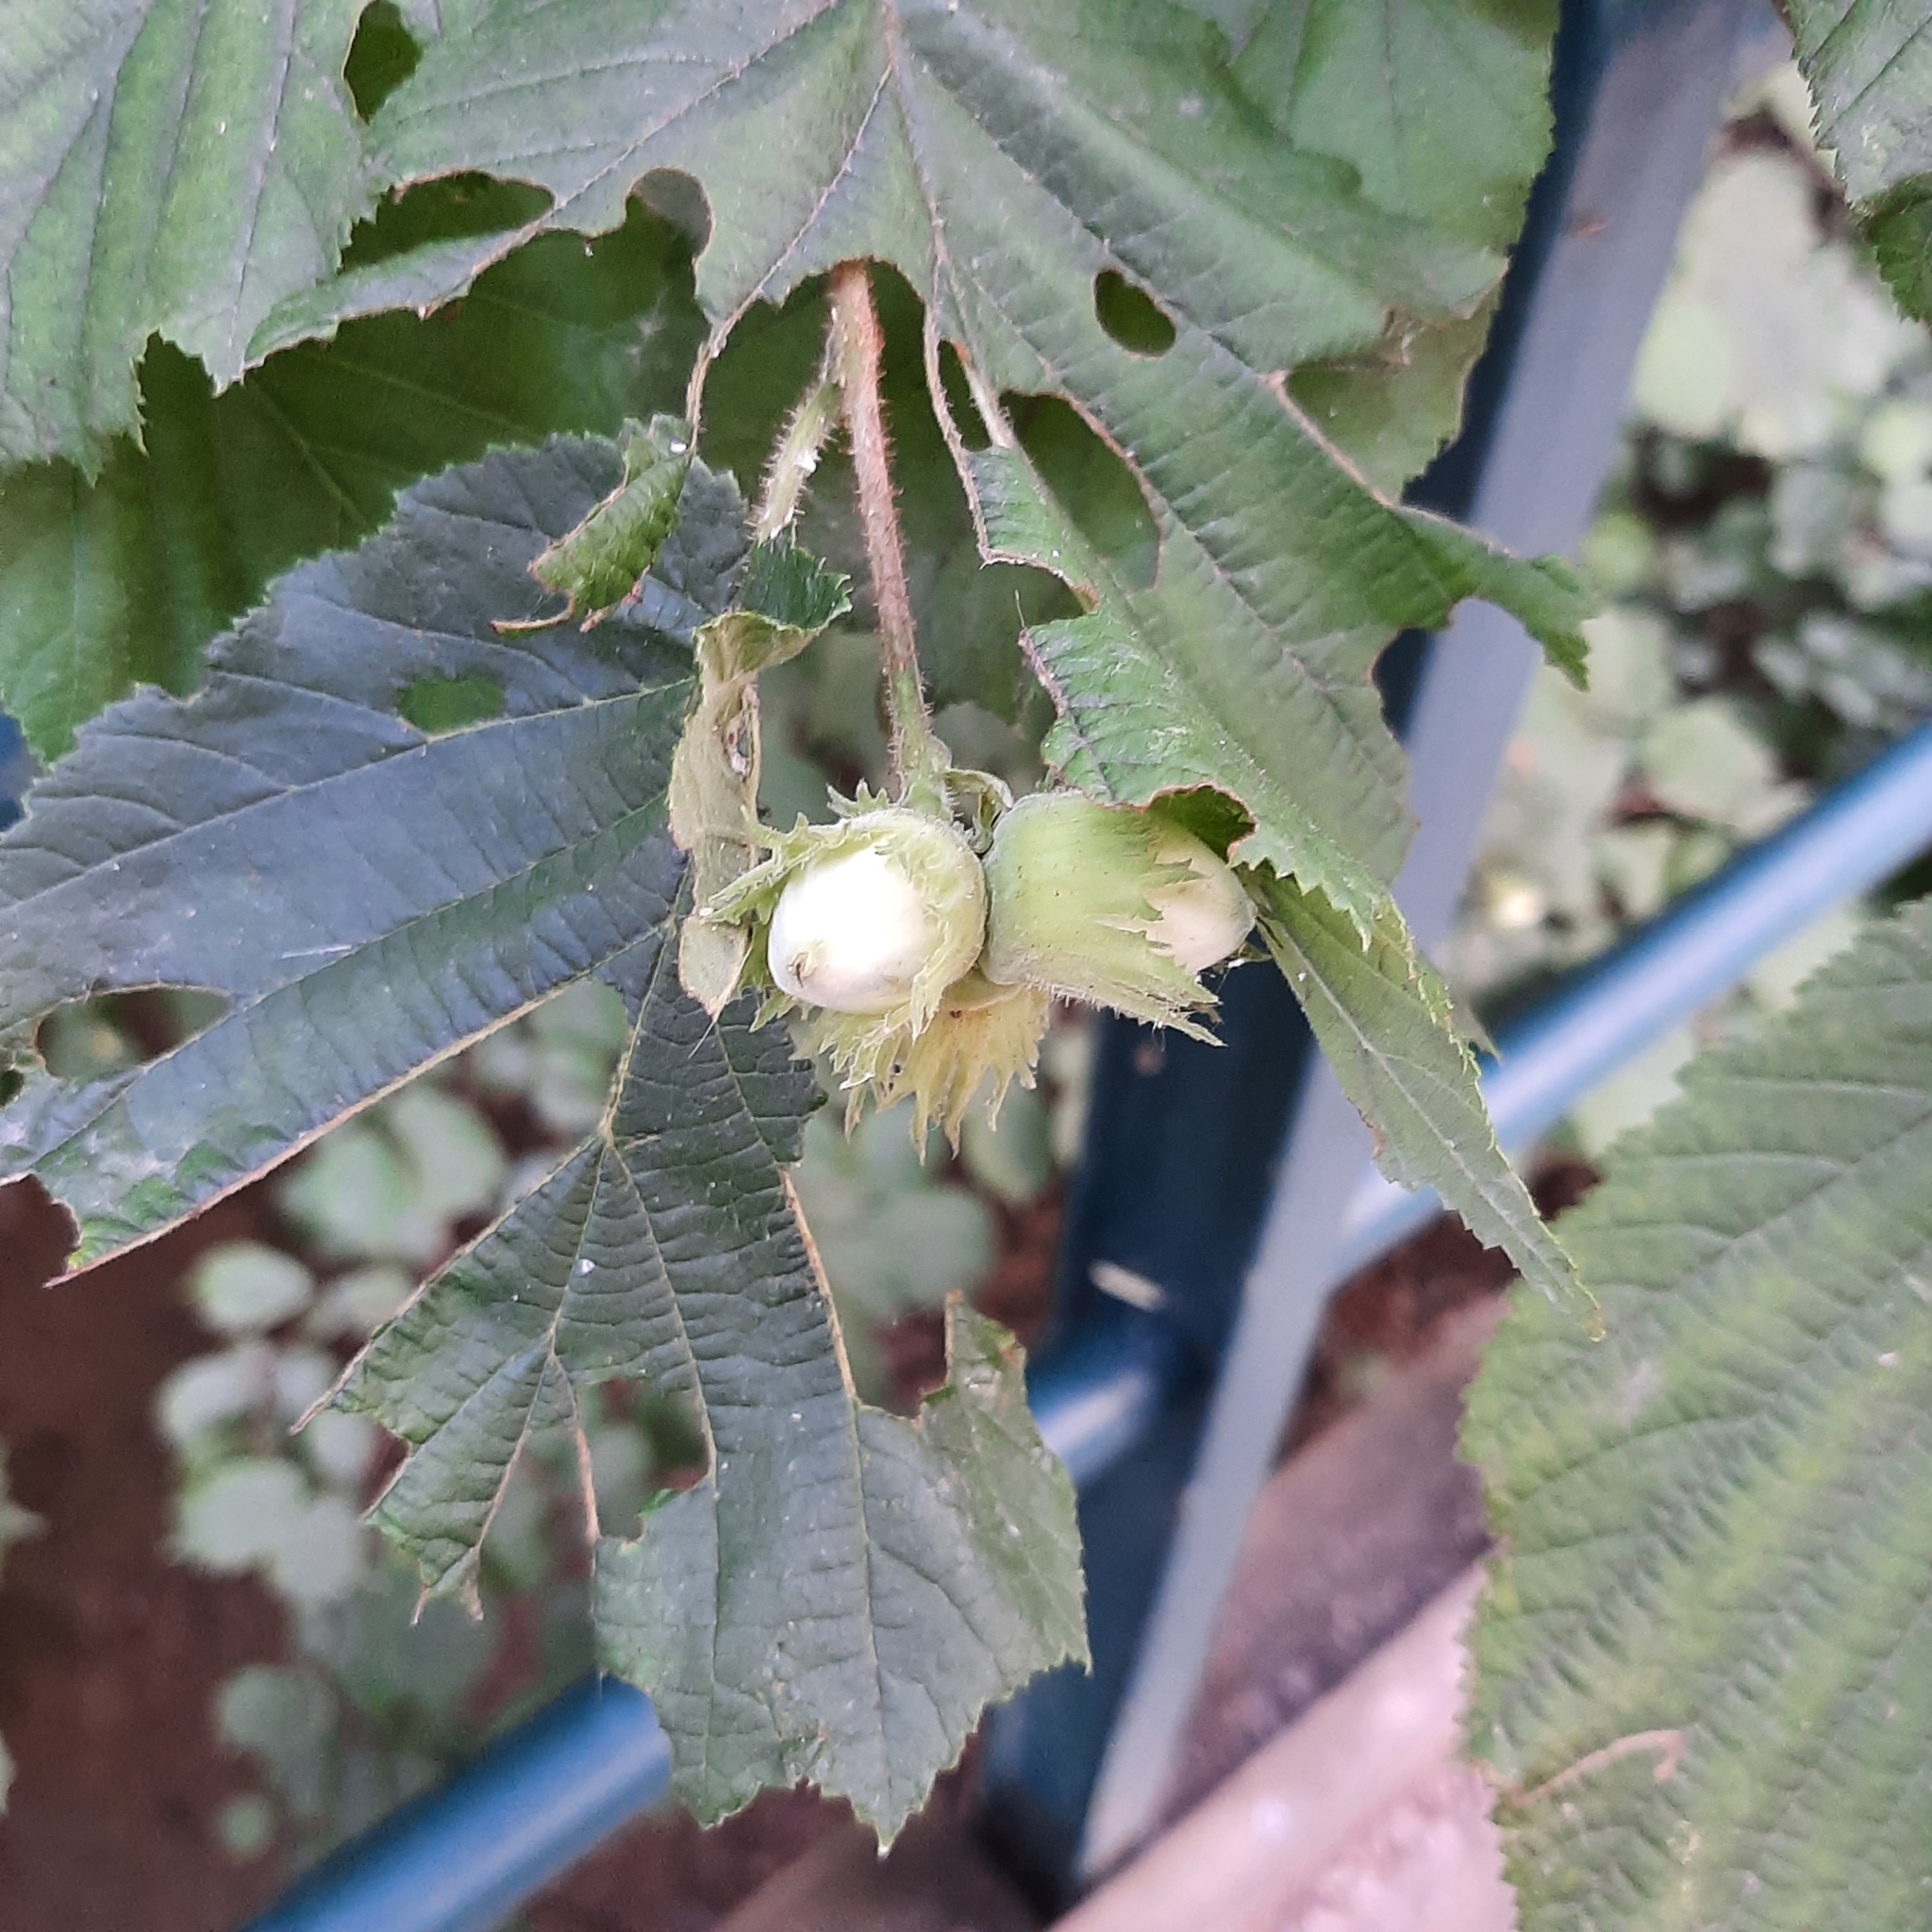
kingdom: Plantae
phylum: Tracheophyta
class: Magnoliopsida
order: Fagales
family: Betulaceae
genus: Corylus
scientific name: Corylus avellana
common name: European hazel
